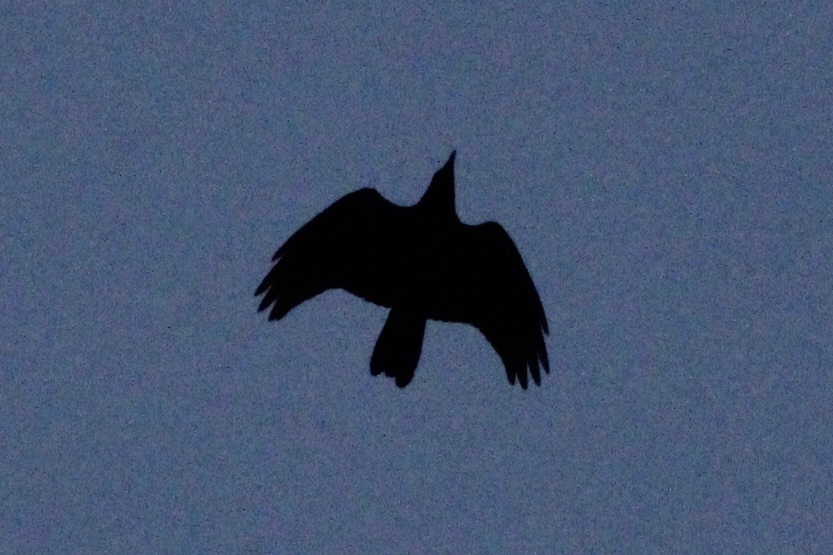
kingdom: Animalia
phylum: Chordata
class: Aves
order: Passeriformes
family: Corvidae
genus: Corvus
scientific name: Corvus corax
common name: Common raven
